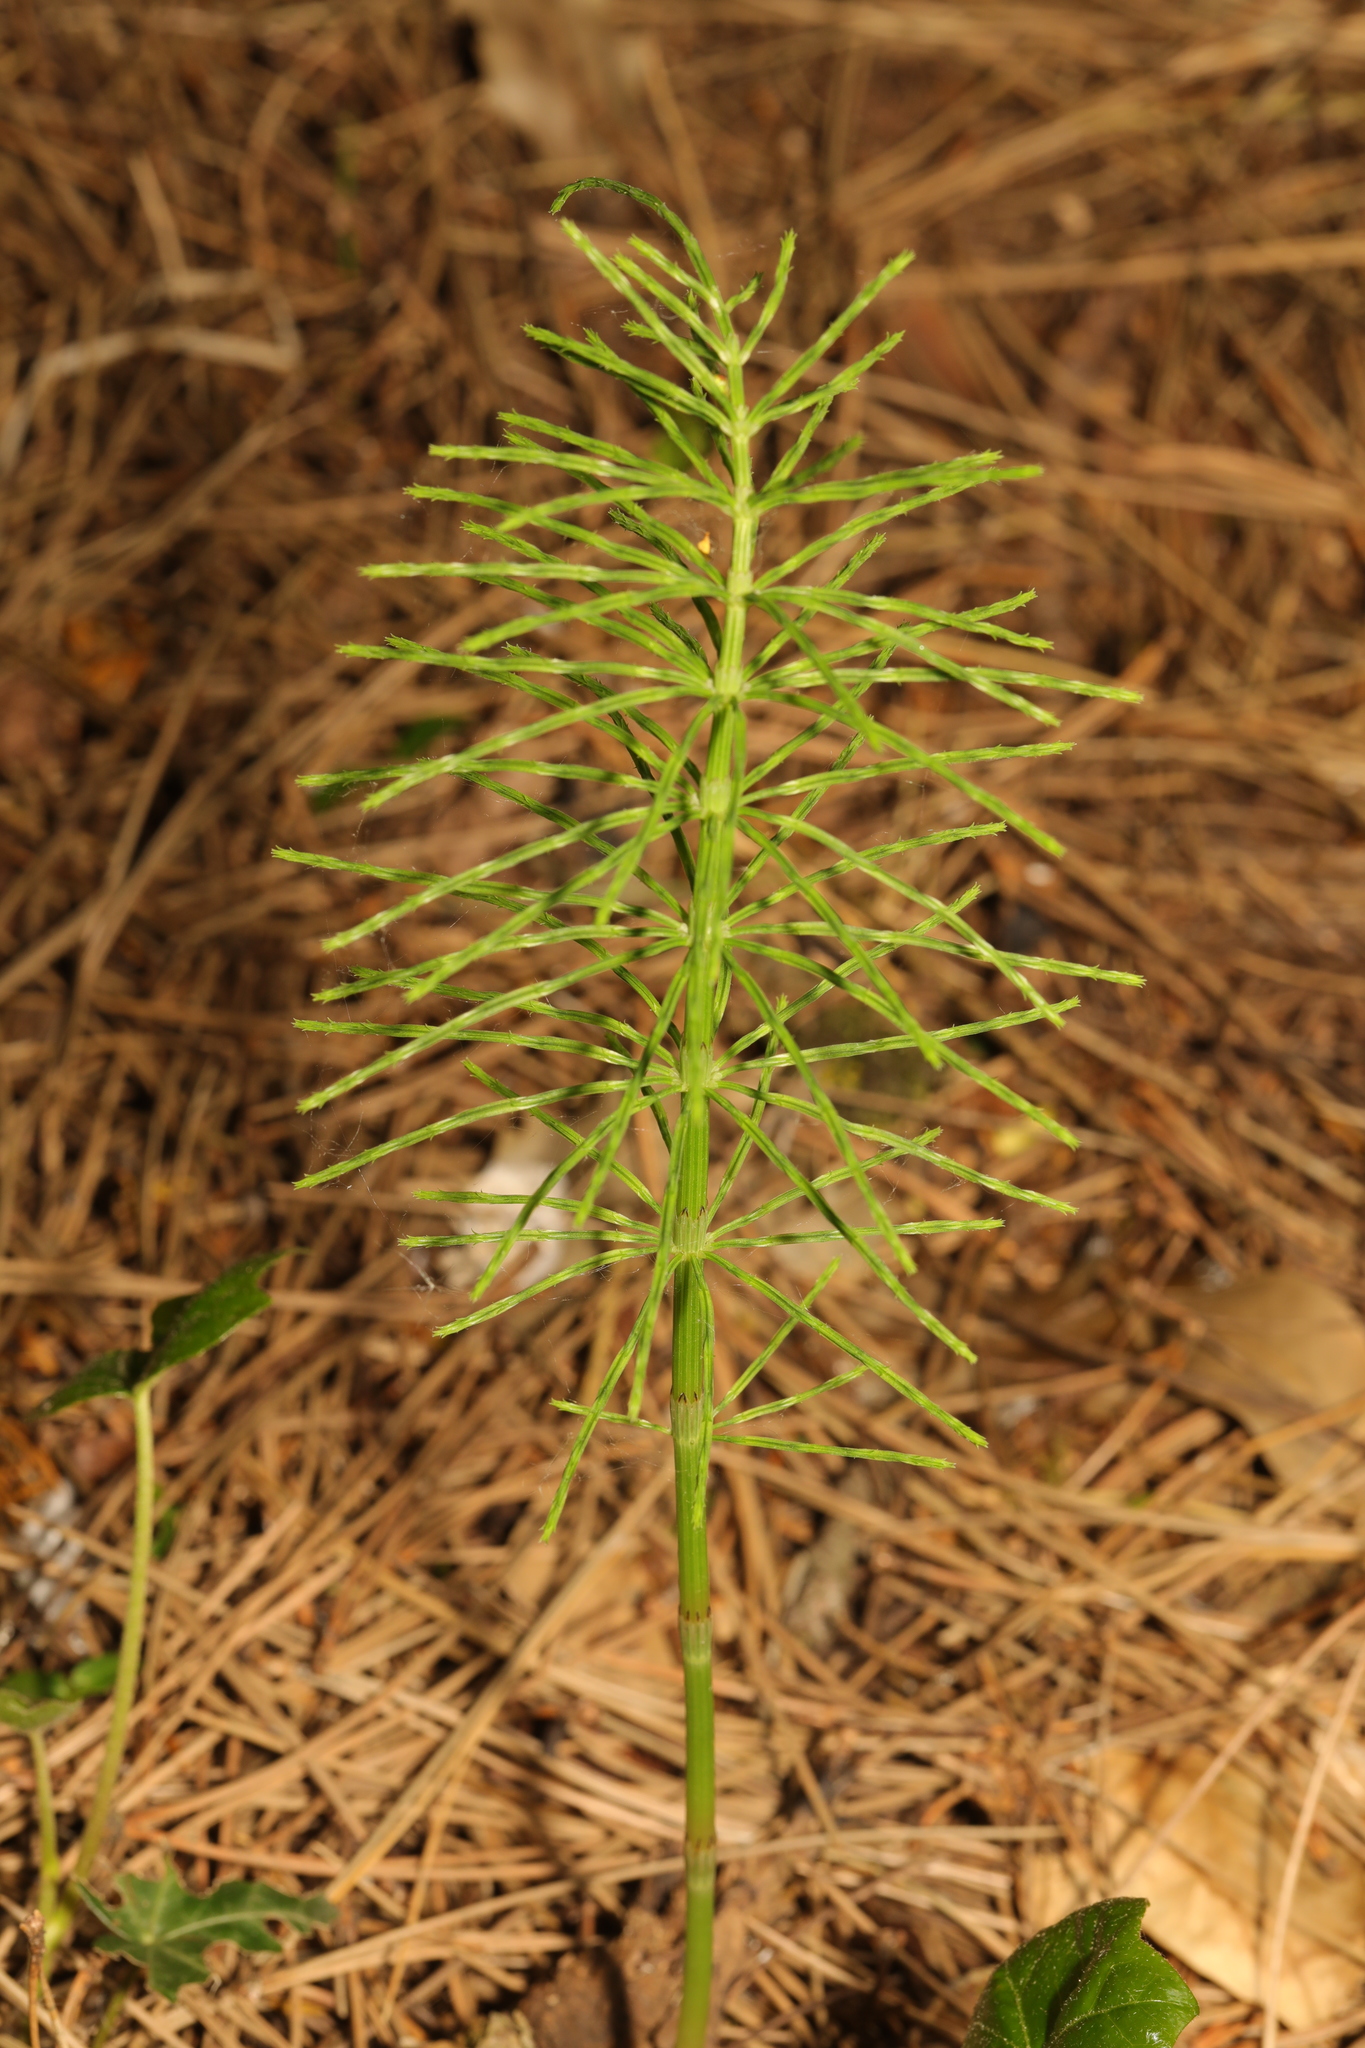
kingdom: Plantae
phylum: Tracheophyta
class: Polypodiopsida
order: Equisetales
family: Equisetaceae
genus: Equisetum
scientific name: Equisetum arvense
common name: Field horsetail
